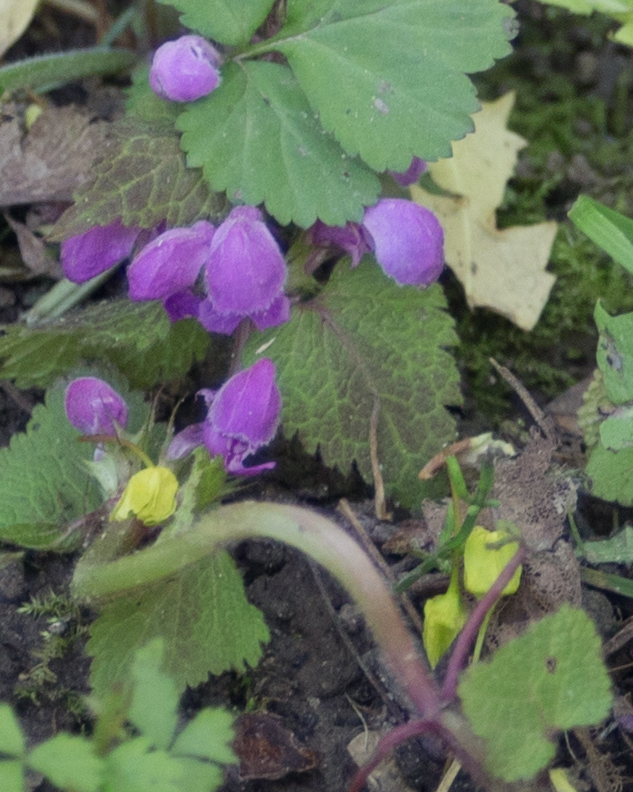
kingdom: Plantae
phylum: Tracheophyta
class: Magnoliopsida
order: Lamiales
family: Lamiaceae
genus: Lamium
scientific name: Lamium maculatum
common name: Spotted dead-nettle
